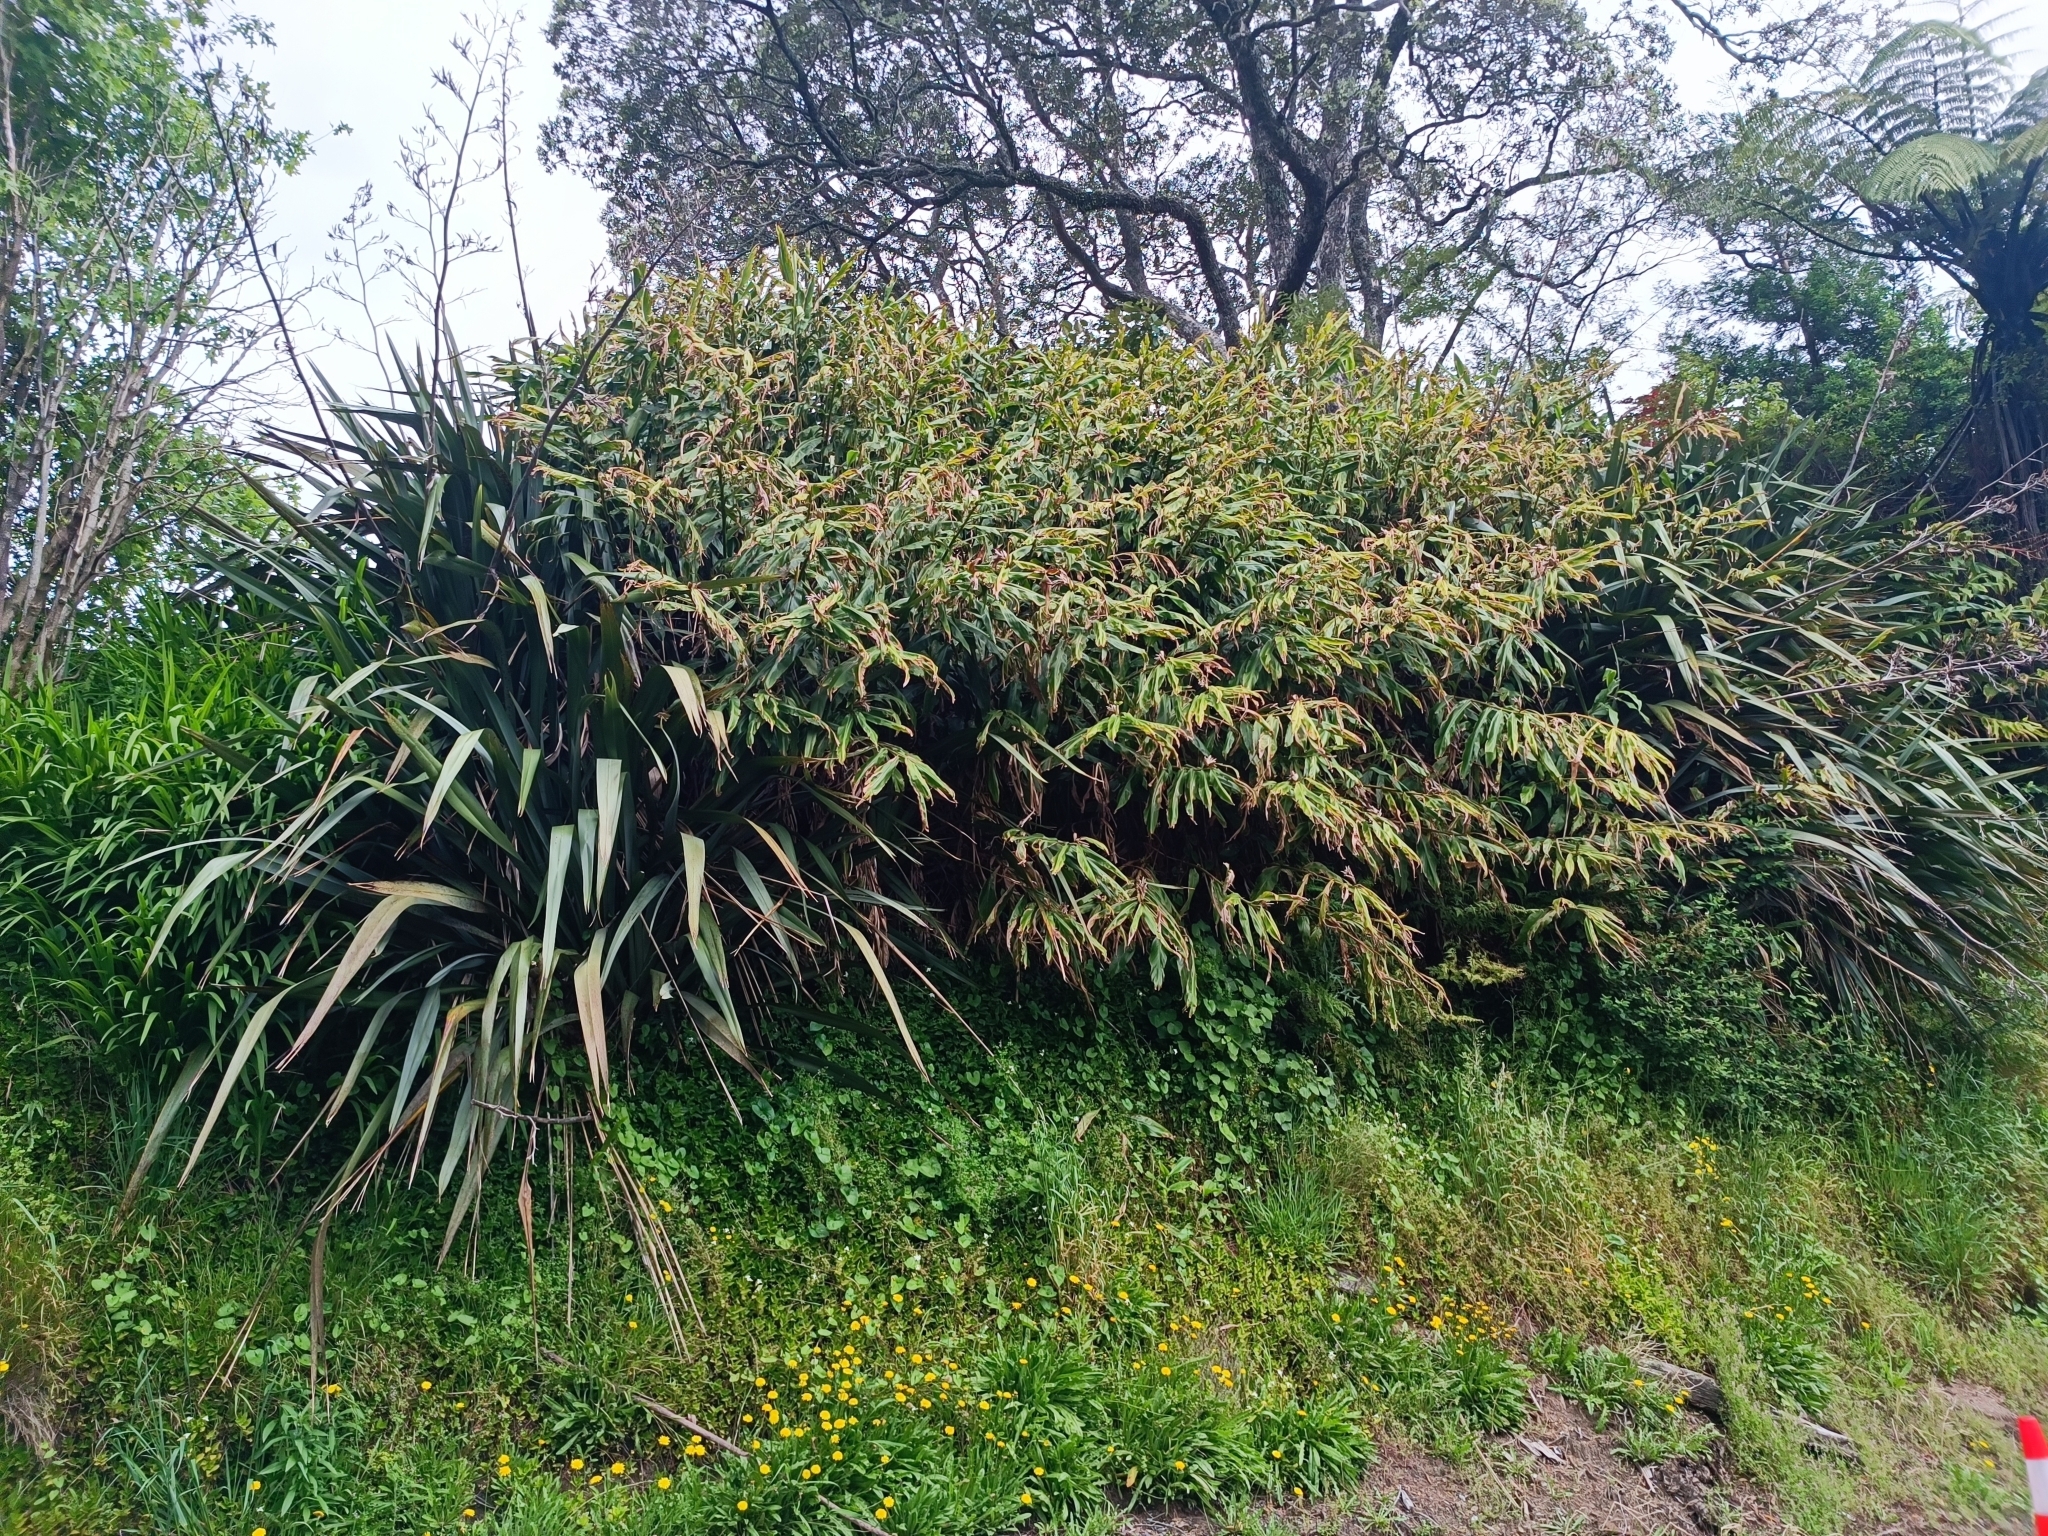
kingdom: Plantae
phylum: Tracheophyta
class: Liliopsida
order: Zingiberales
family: Zingiberaceae
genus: Hedychium
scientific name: Hedychium flavescens
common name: Yellow ginger
